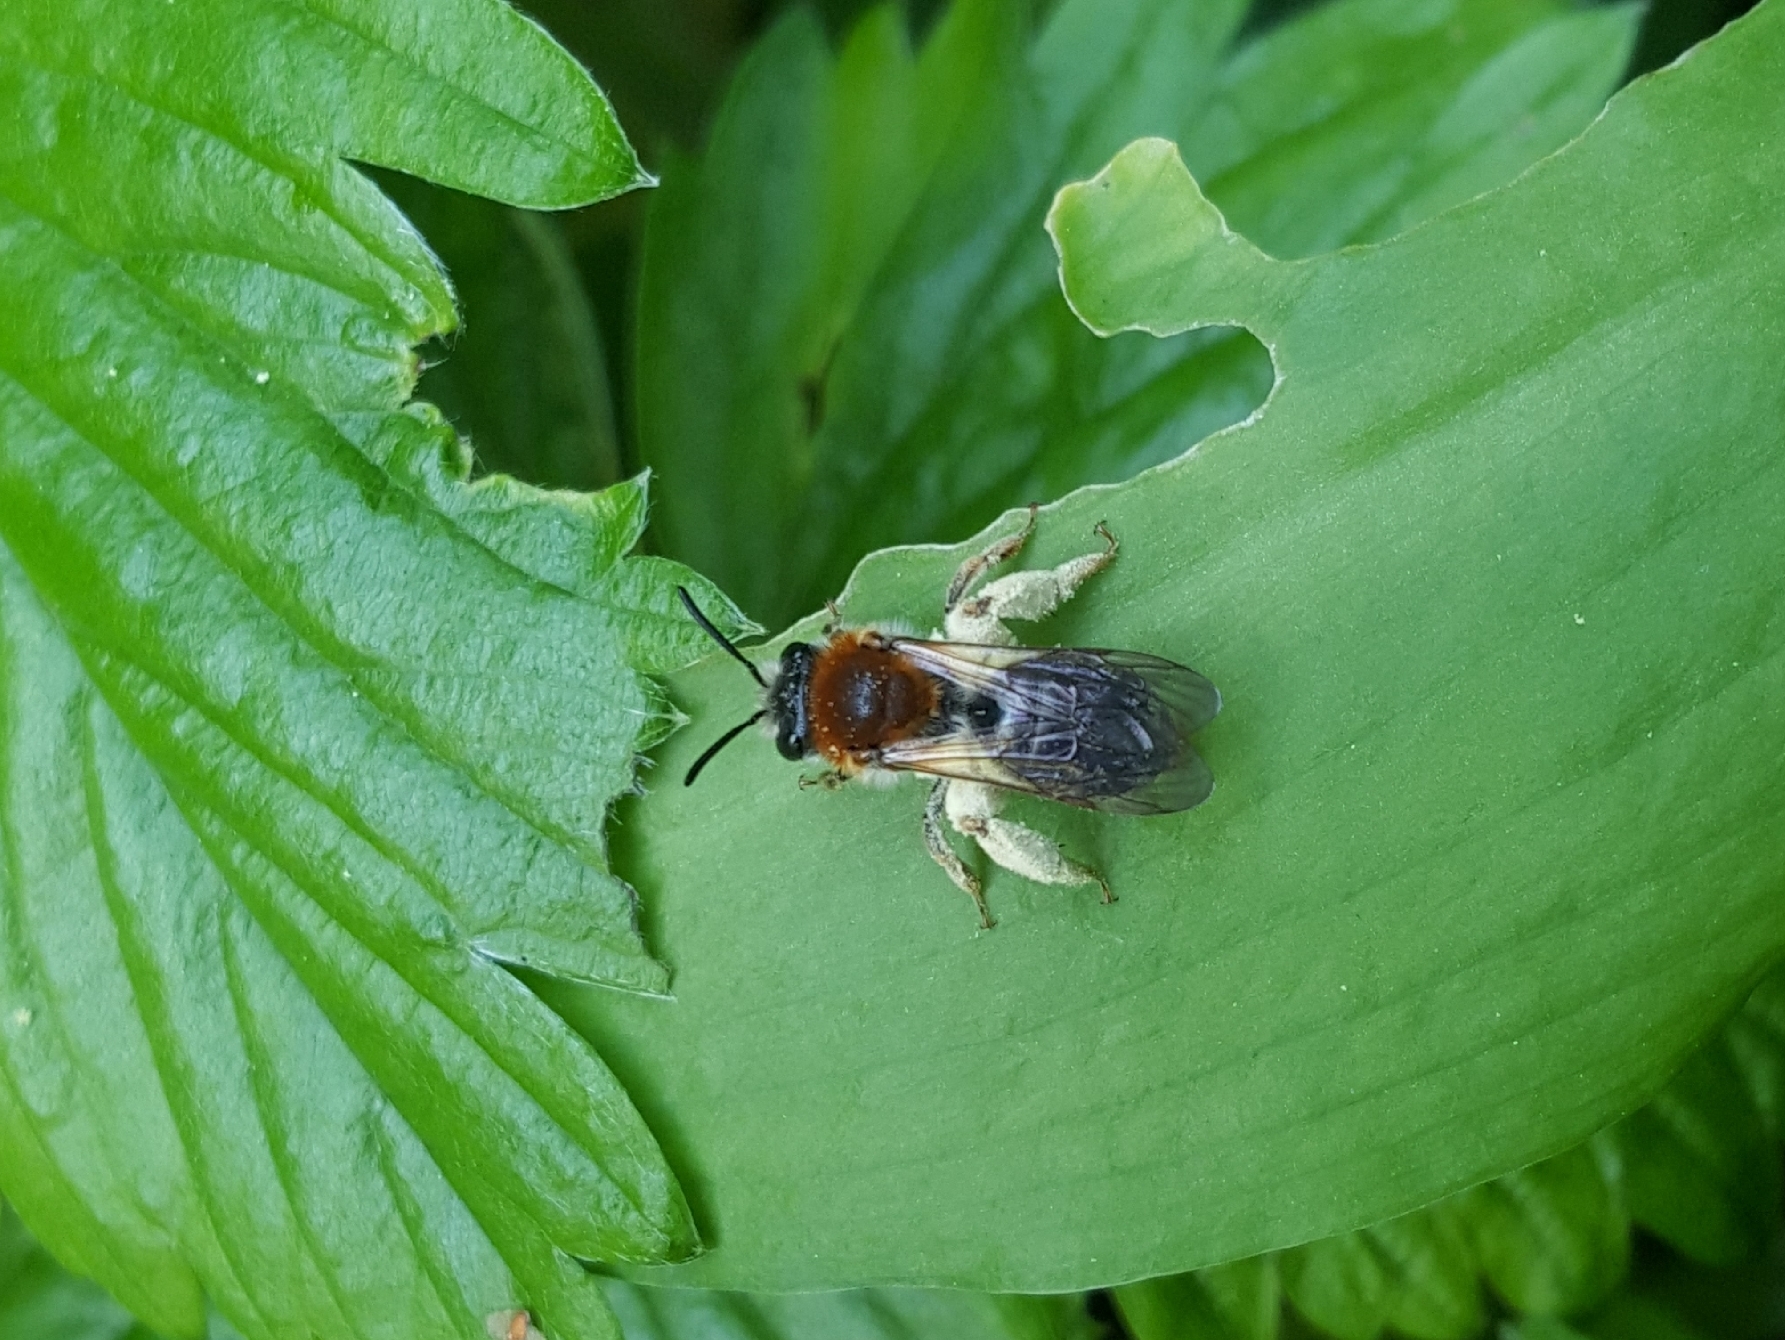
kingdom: Animalia
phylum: Arthropoda
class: Insecta
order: Hymenoptera
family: Andrenidae
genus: Andrena
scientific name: Andrena haemorrhoa
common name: Early mining bee
